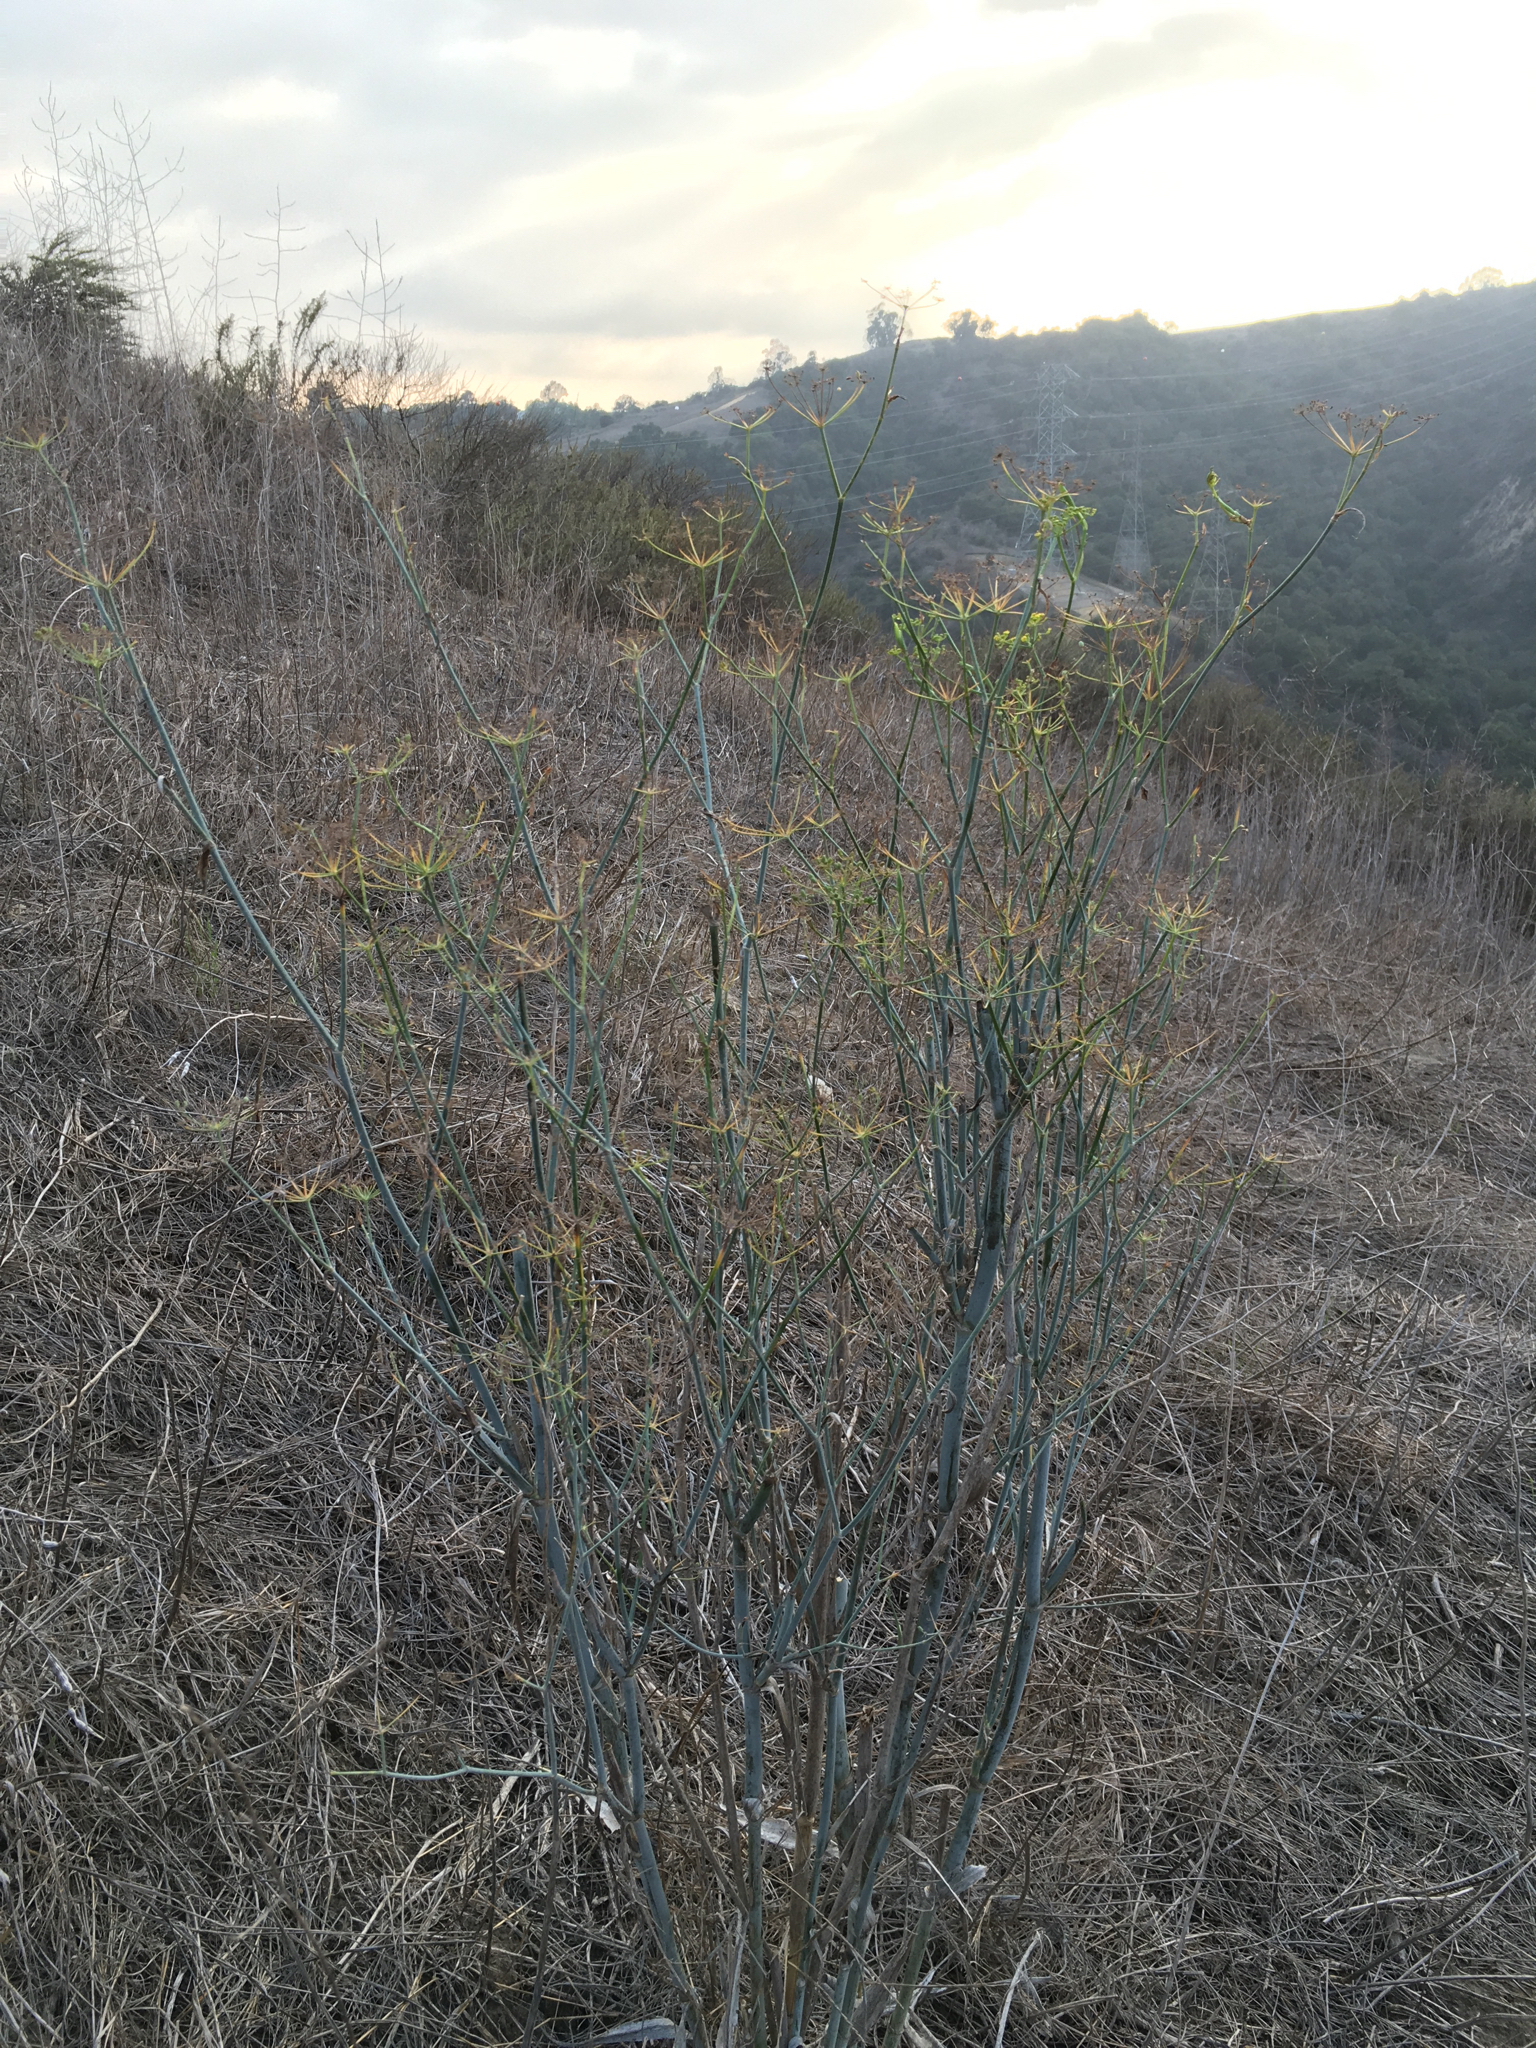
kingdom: Plantae
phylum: Tracheophyta
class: Magnoliopsida
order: Apiales
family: Apiaceae
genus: Foeniculum
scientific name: Foeniculum vulgare
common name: Fennel
